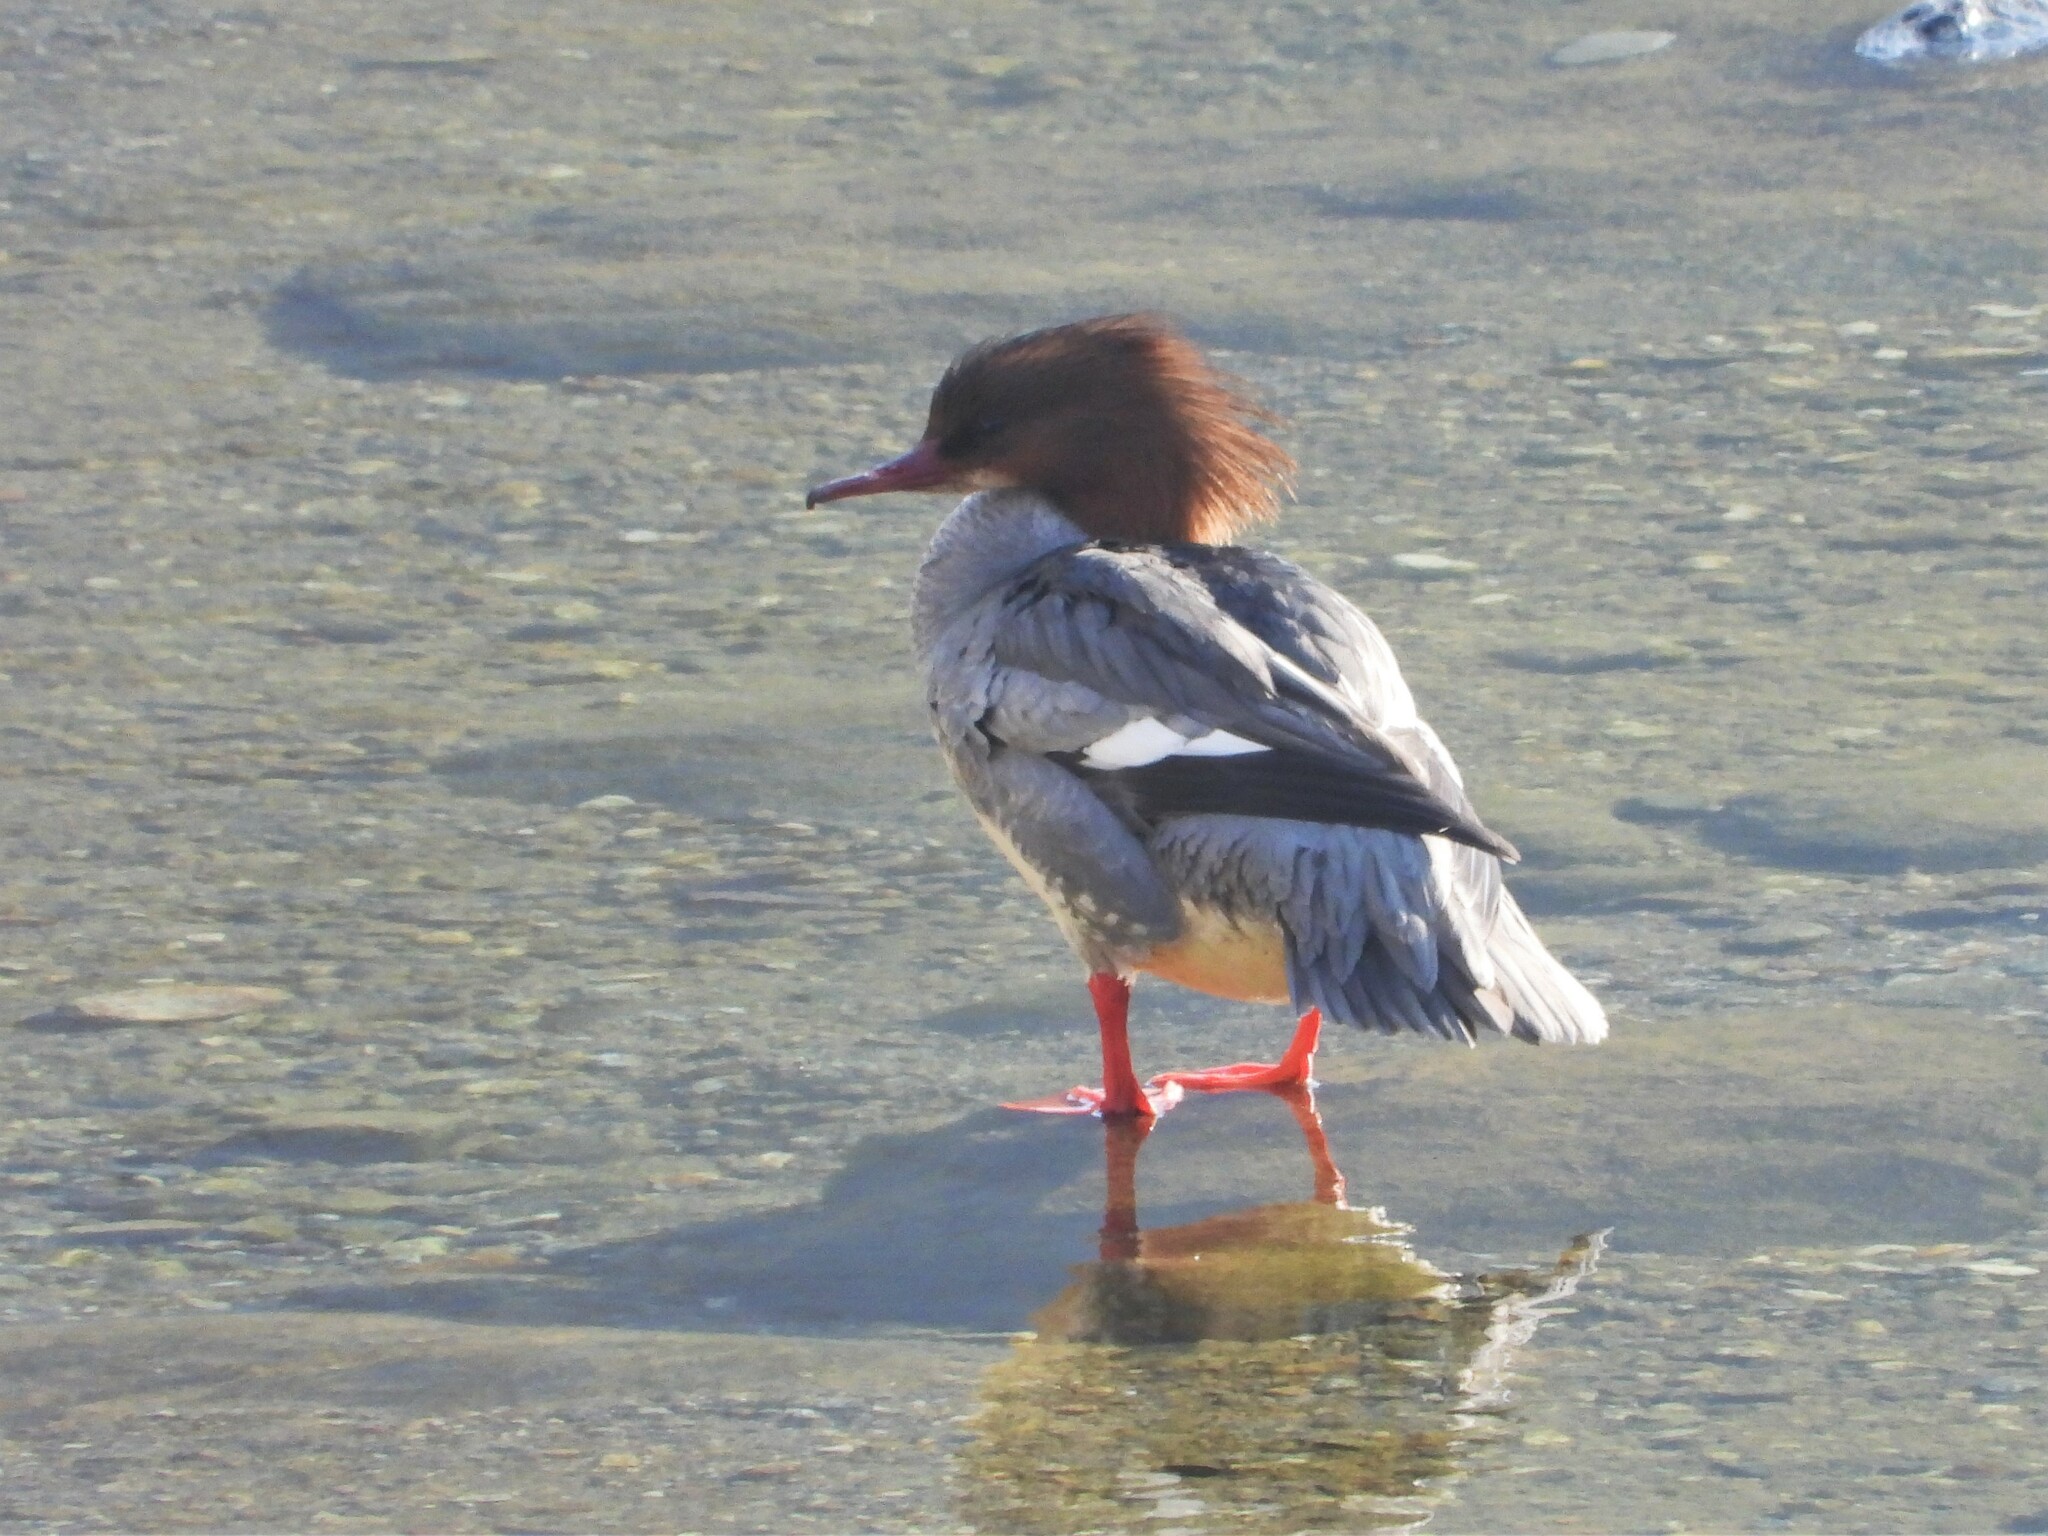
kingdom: Animalia
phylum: Chordata
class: Aves
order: Anseriformes
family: Anatidae
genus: Mergus
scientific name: Mergus merganser
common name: Common merganser
